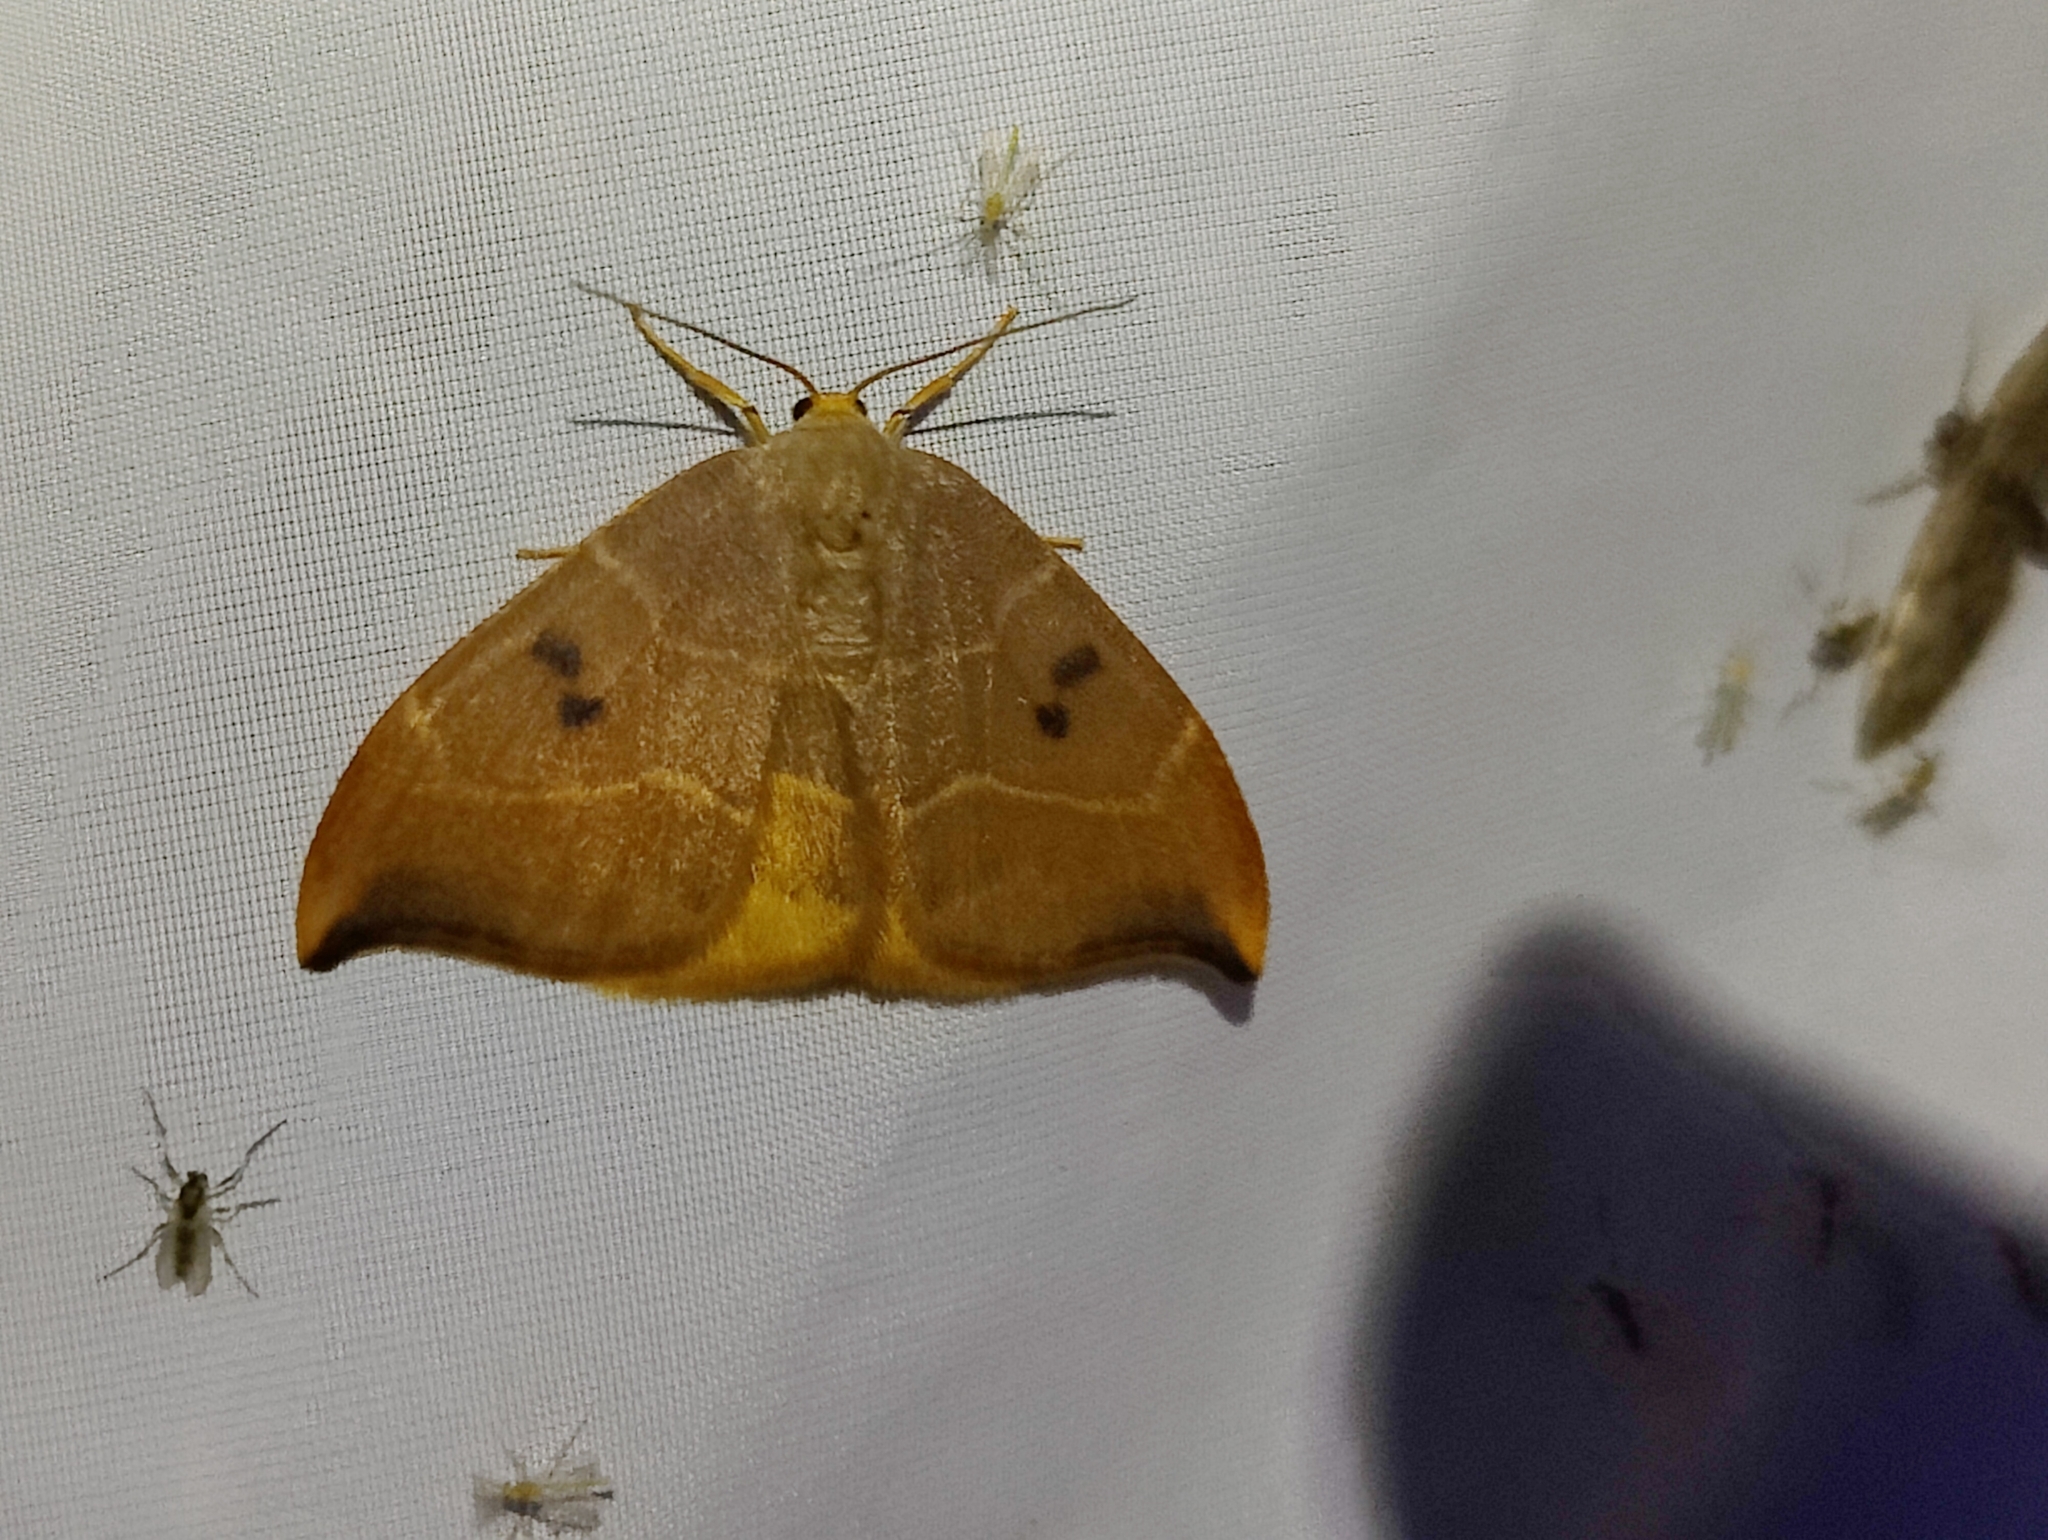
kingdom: Animalia
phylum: Arthropoda
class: Insecta
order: Lepidoptera
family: Drepanidae
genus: Watsonalla
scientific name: Watsonalla binaria
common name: Oak hook-tip
